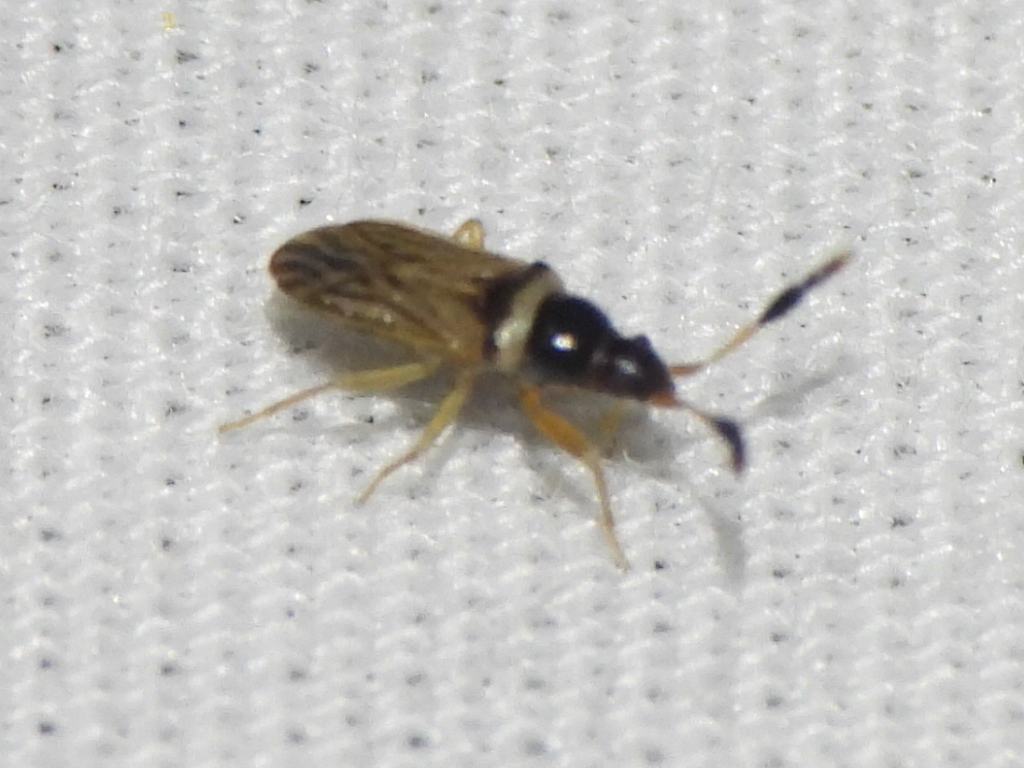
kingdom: Animalia
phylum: Arthropoda
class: Insecta
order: Hemiptera
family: Rhyparochromidae
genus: Ptochiomera
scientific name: Ptochiomera nodosa
